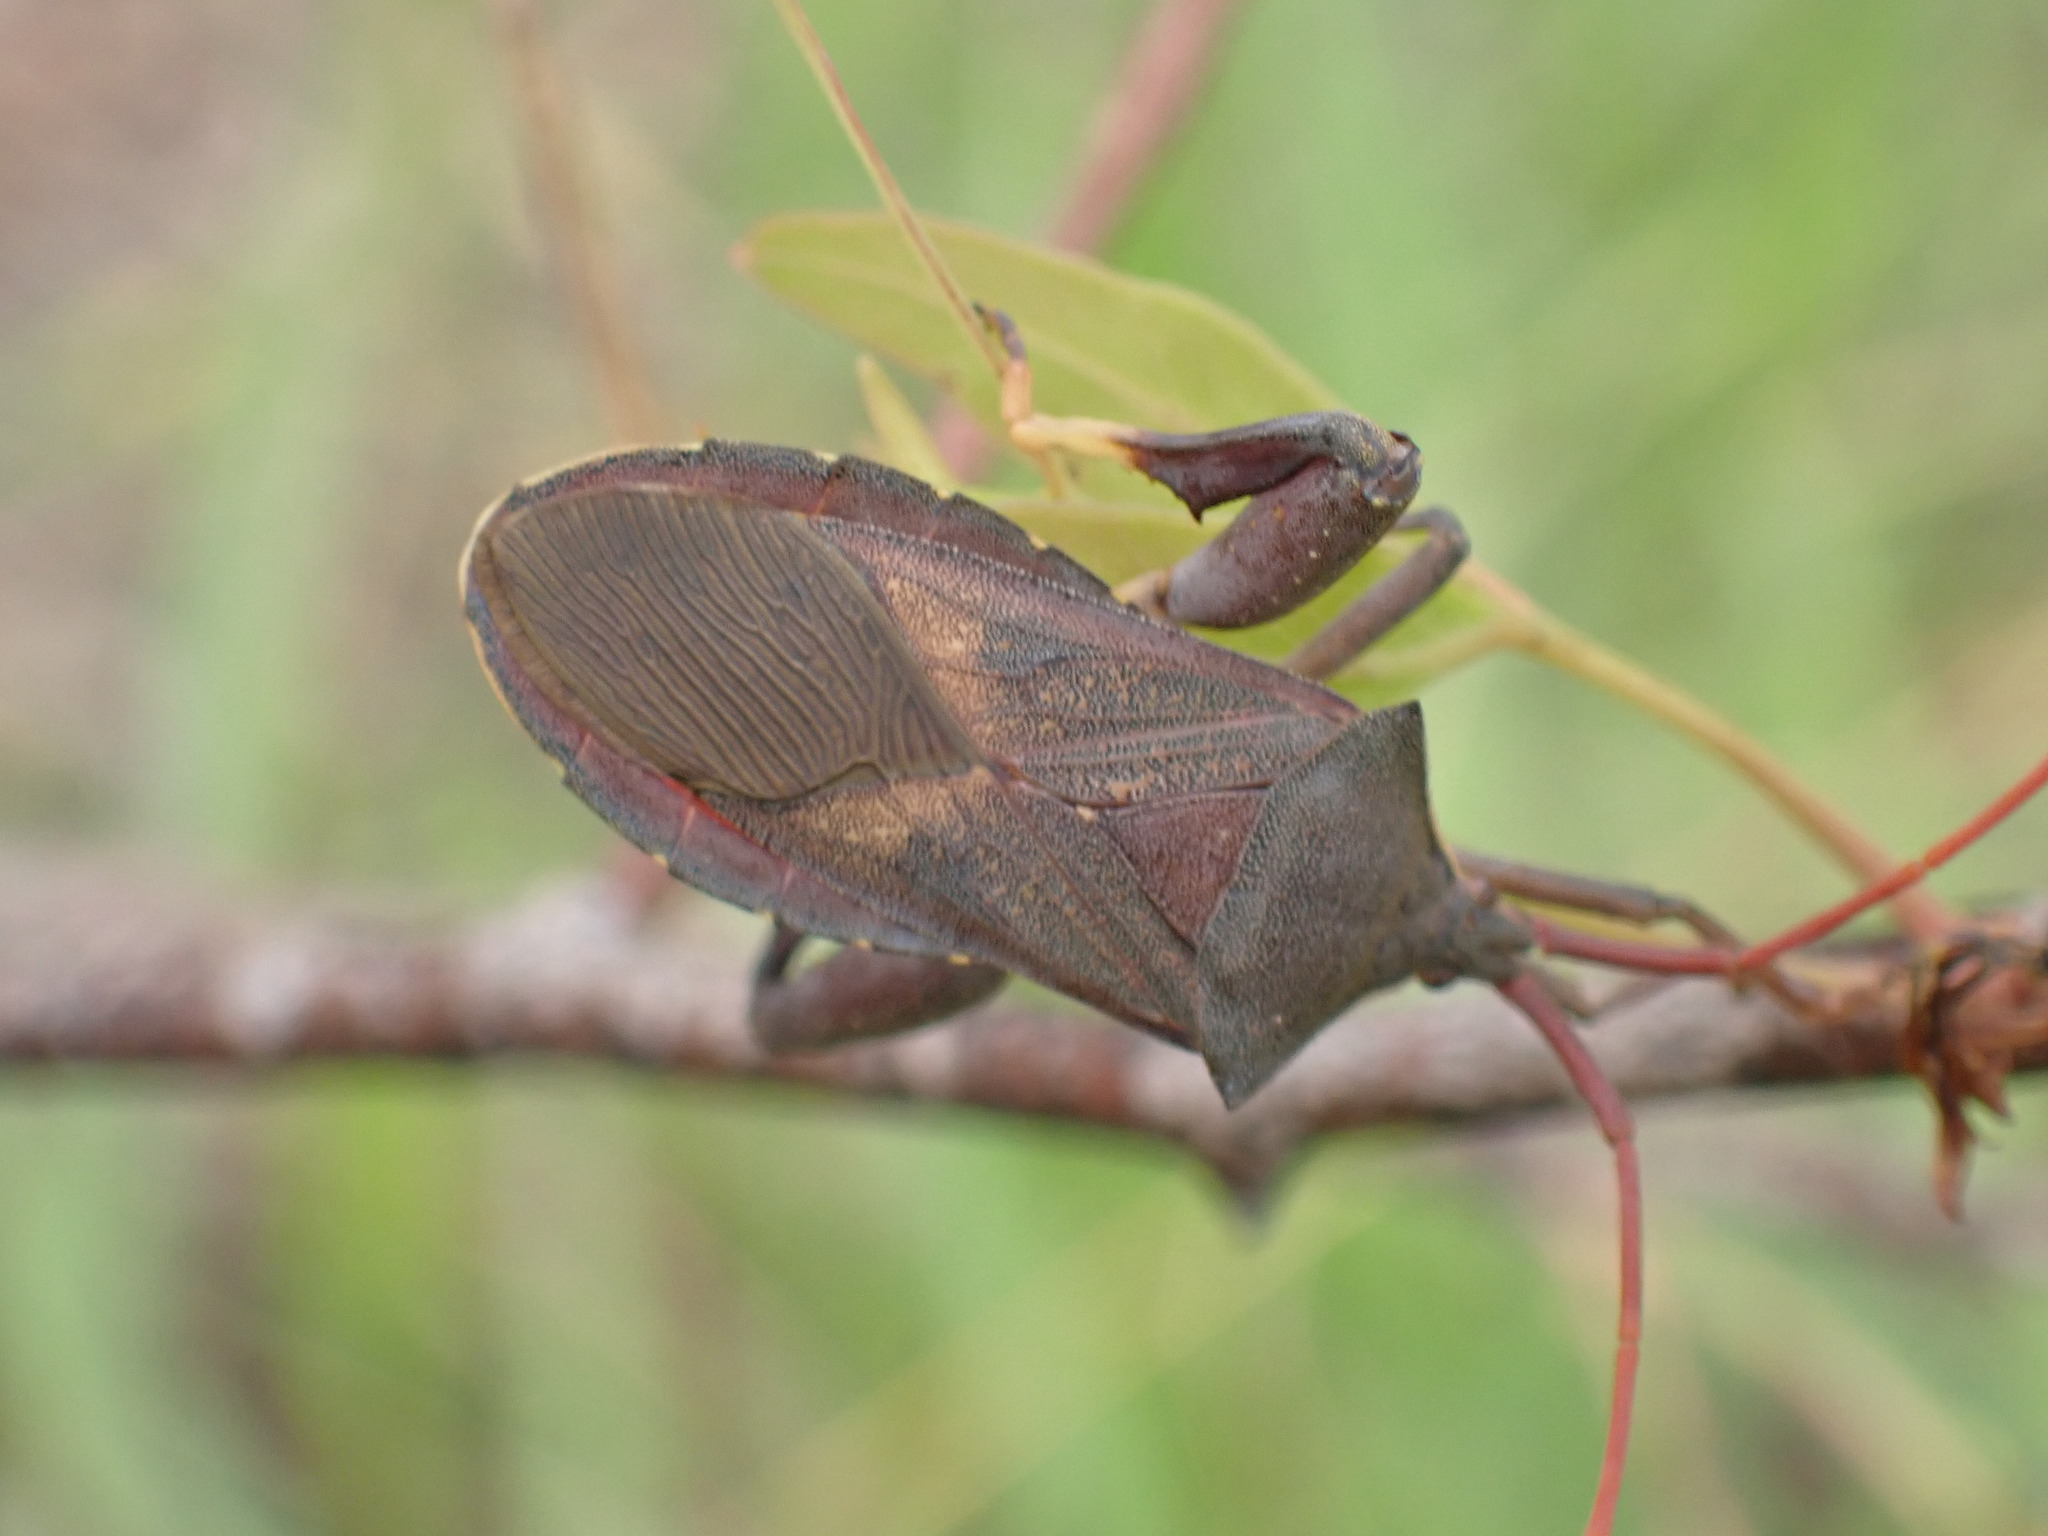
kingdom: Animalia
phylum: Arthropoda
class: Insecta
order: Hemiptera
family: Coreidae
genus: Amorbus
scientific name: Amorbus robustus
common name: Common gum-tree bug
